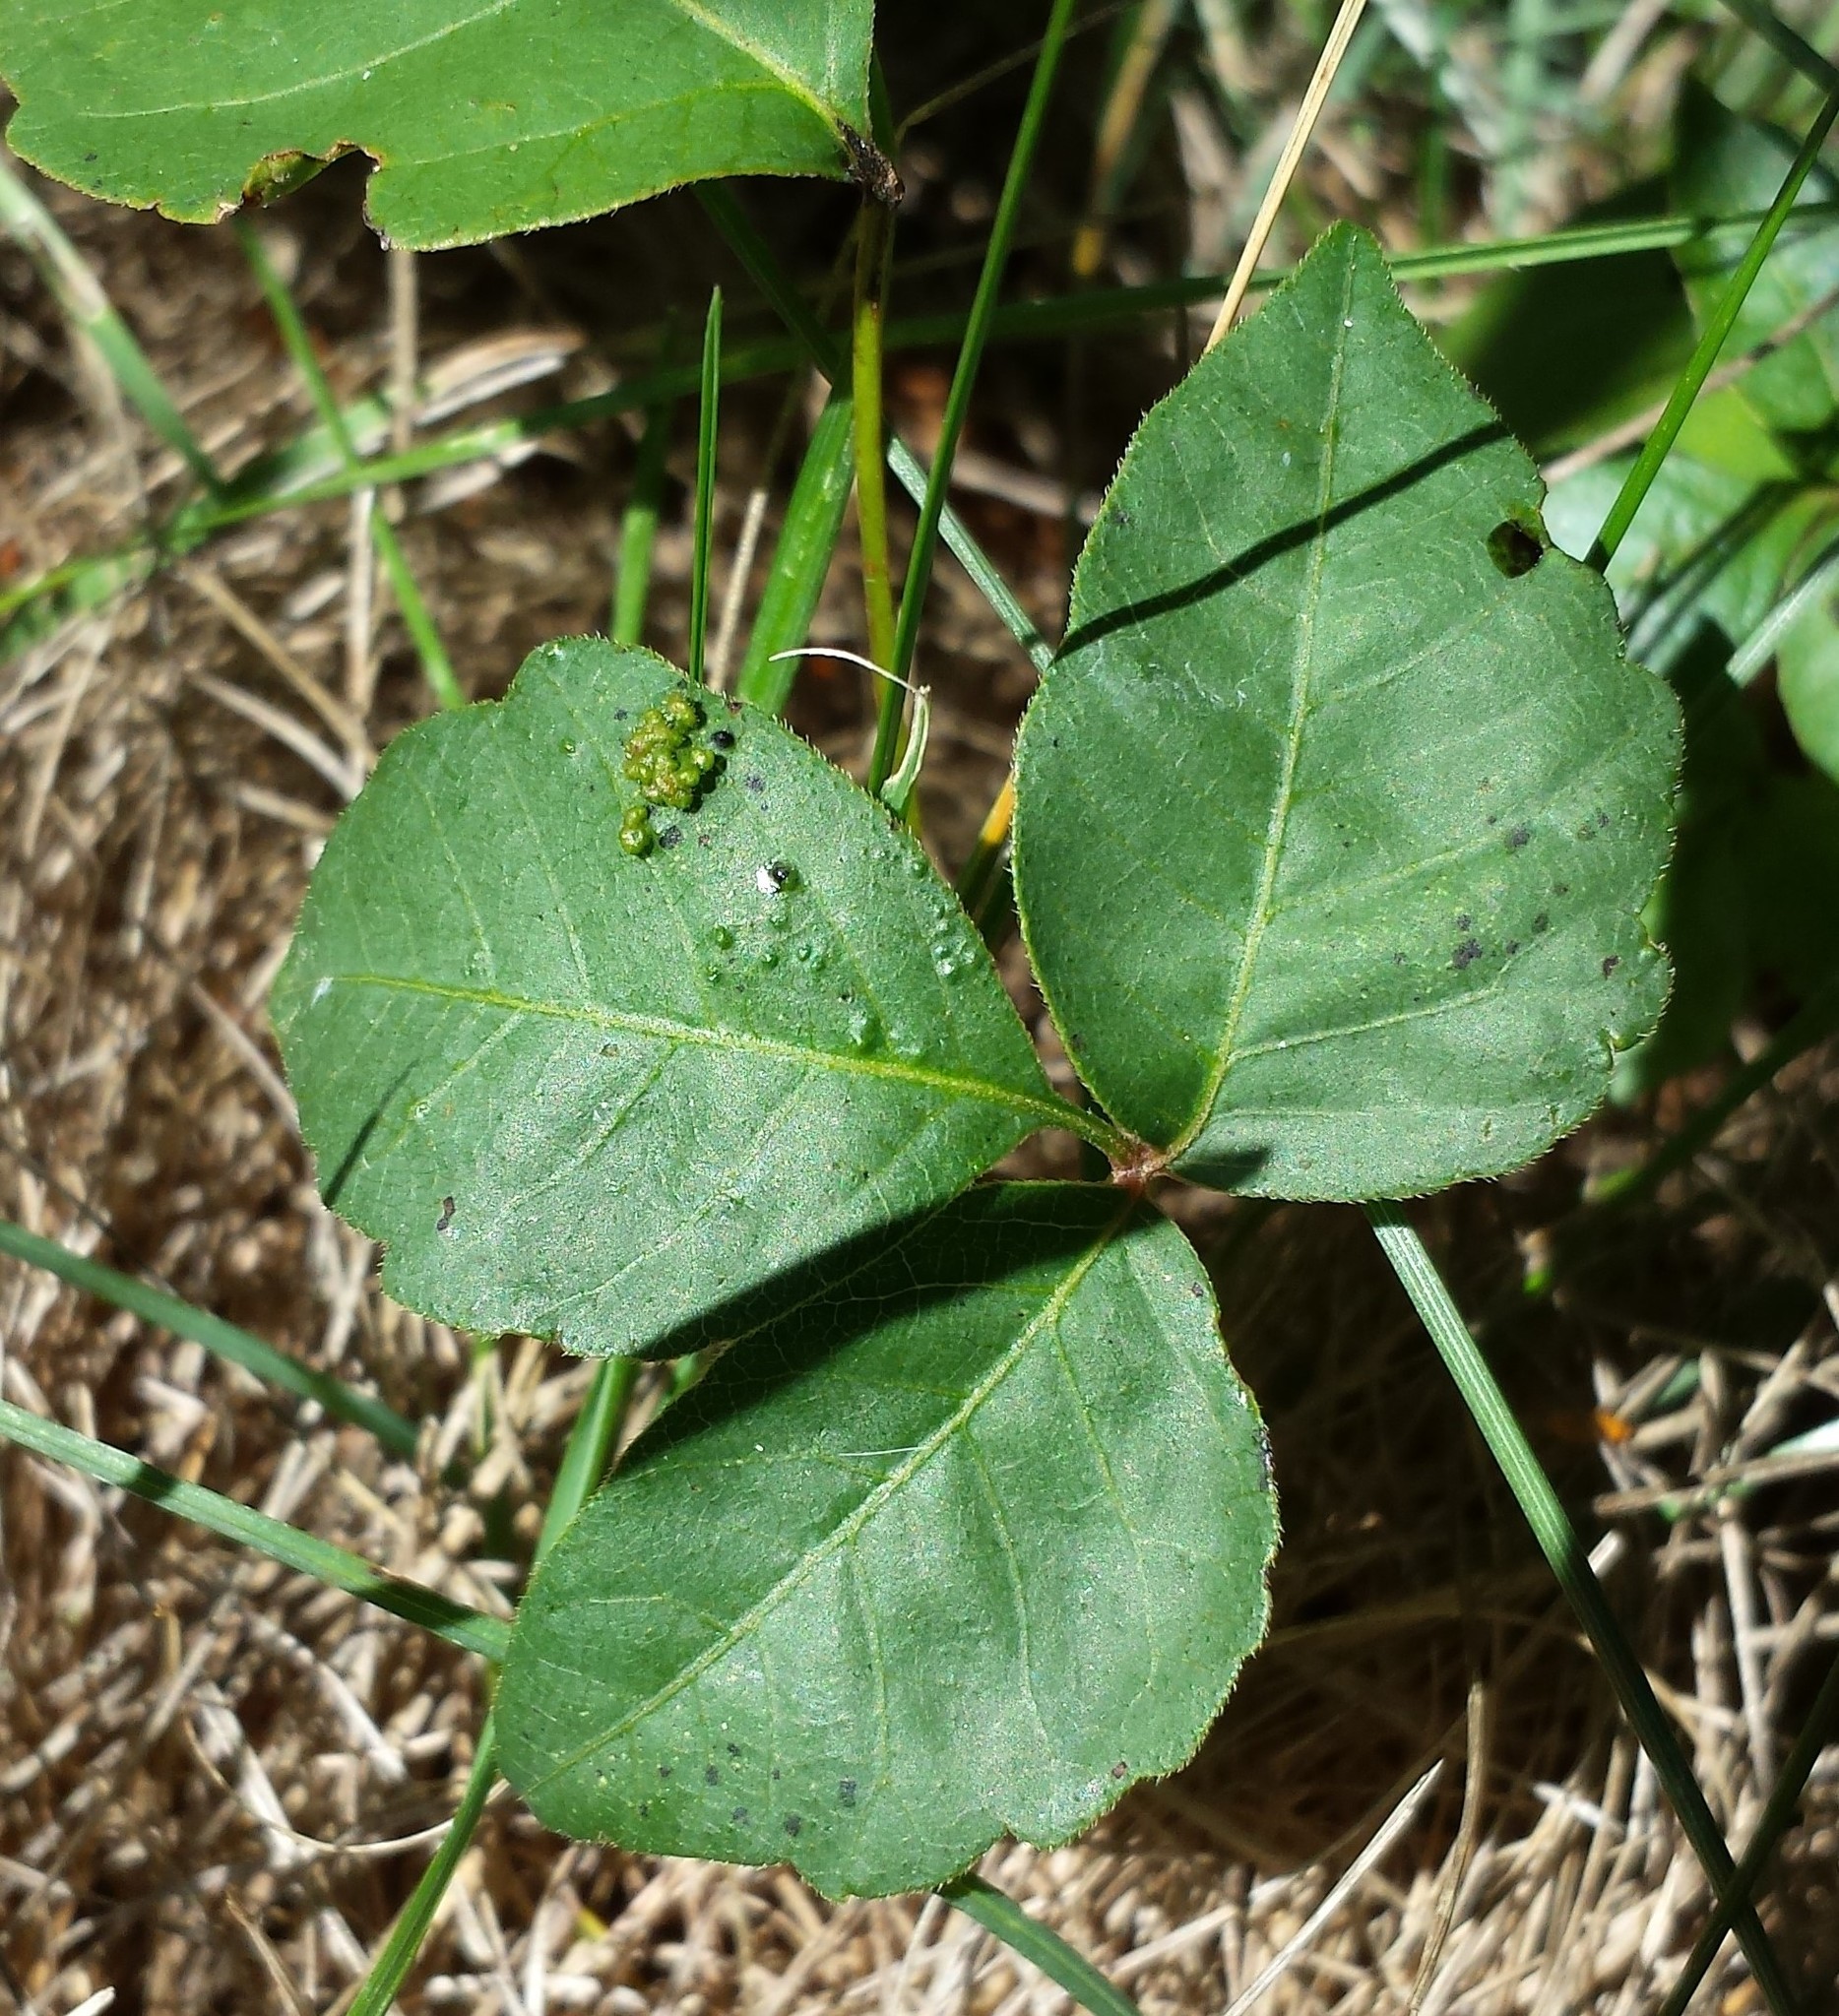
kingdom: Animalia
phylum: Arthropoda
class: Arachnida
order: Trombidiformes
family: Eriophyidae
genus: Aculops
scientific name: Aculops
